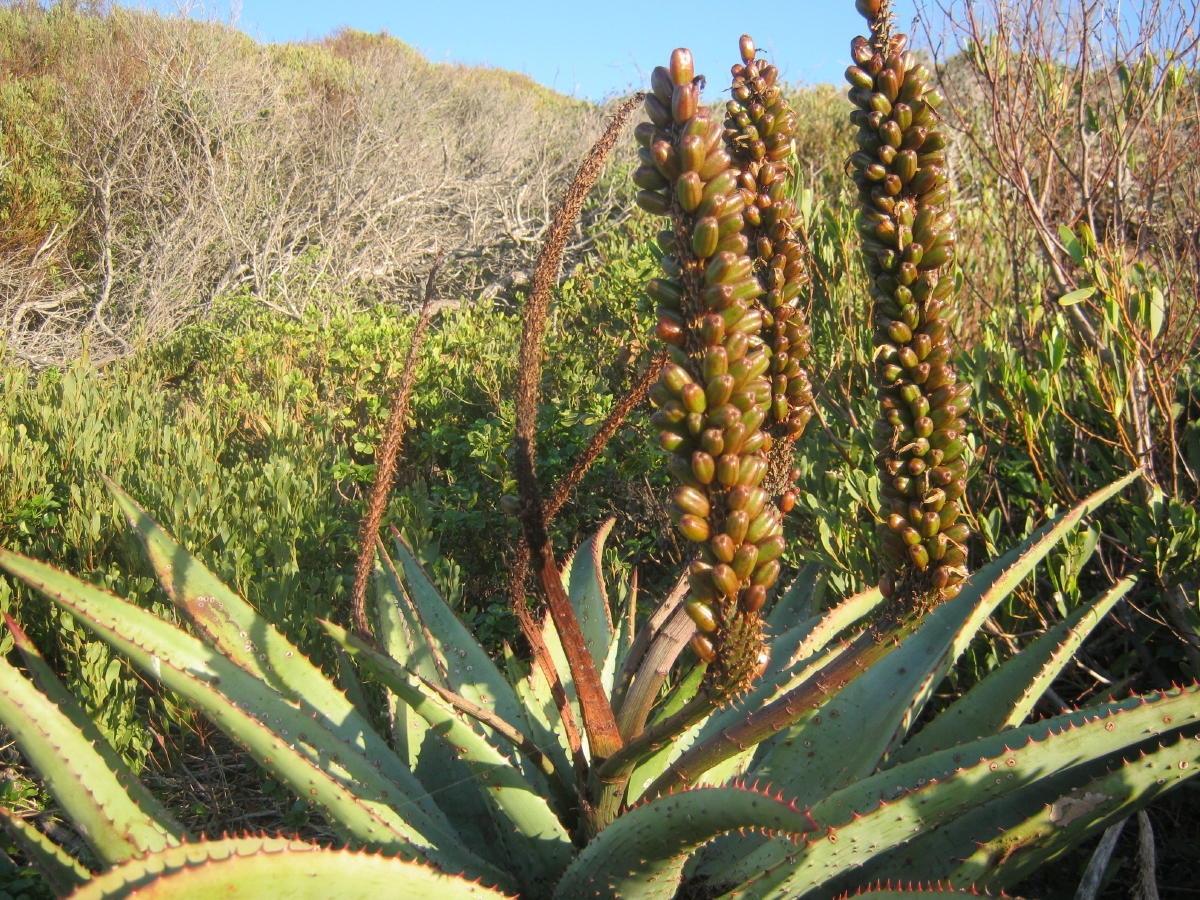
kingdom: Plantae
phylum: Tracheophyta
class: Liliopsida
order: Asparagales
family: Asphodelaceae
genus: Aloe
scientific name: Aloe ferox
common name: Bitter aloe
